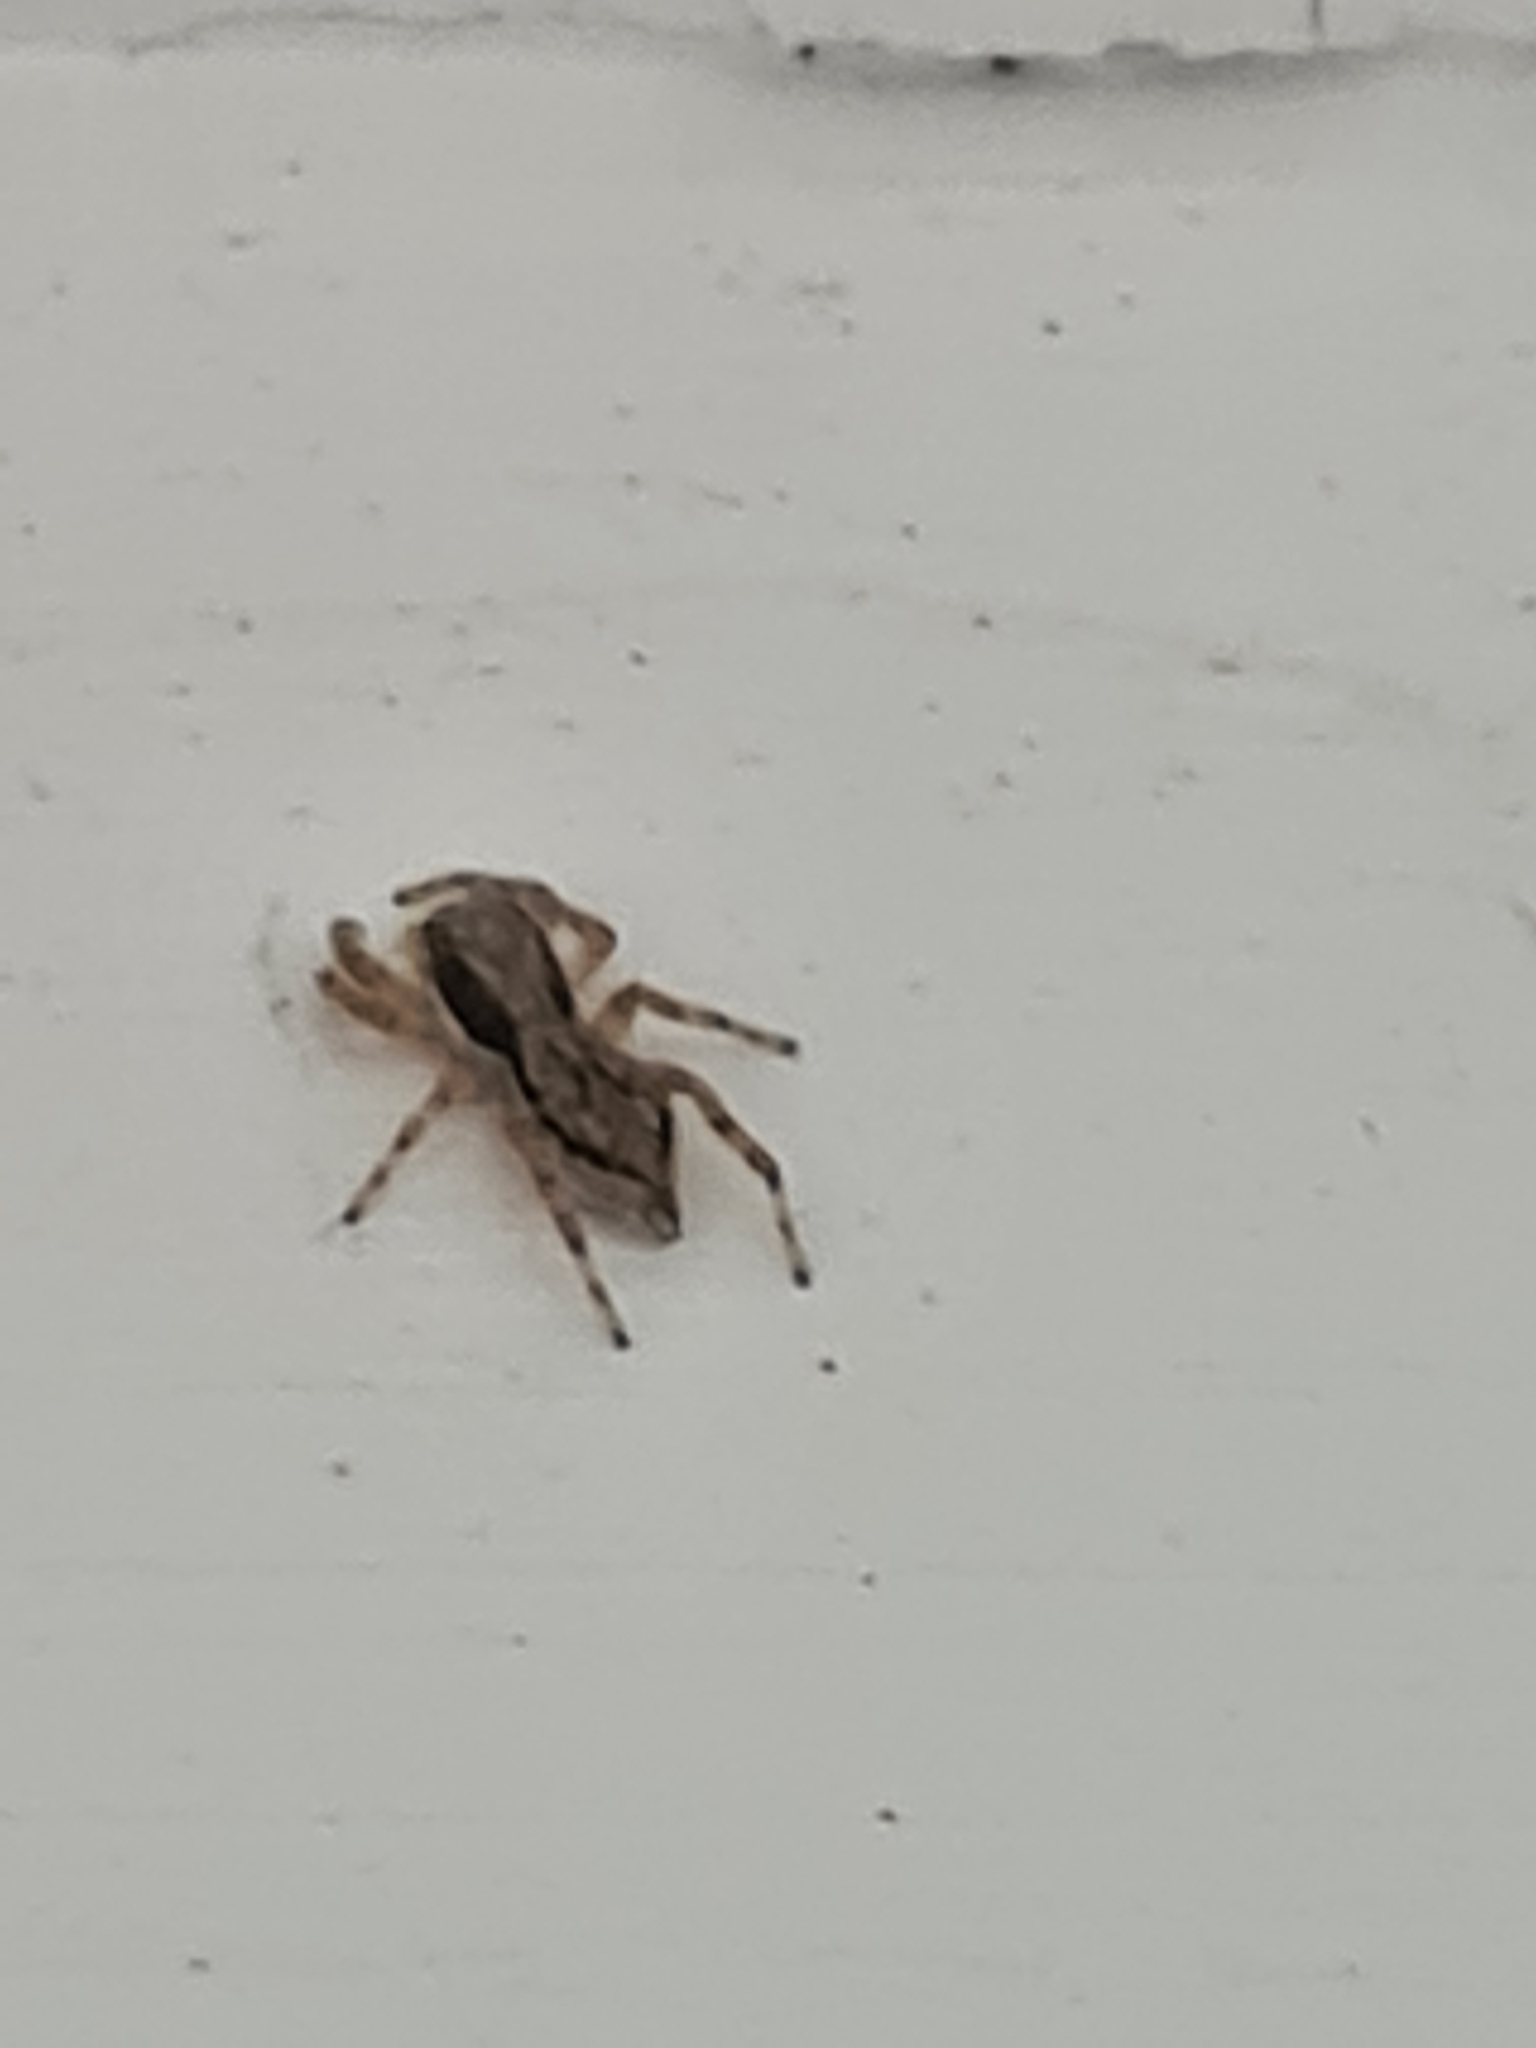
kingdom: Animalia
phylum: Arthropoda
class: Arachnida
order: Araneae
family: Salticidae
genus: Menemerus
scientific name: Menemerus bivittatus
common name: Gray wall jumper
